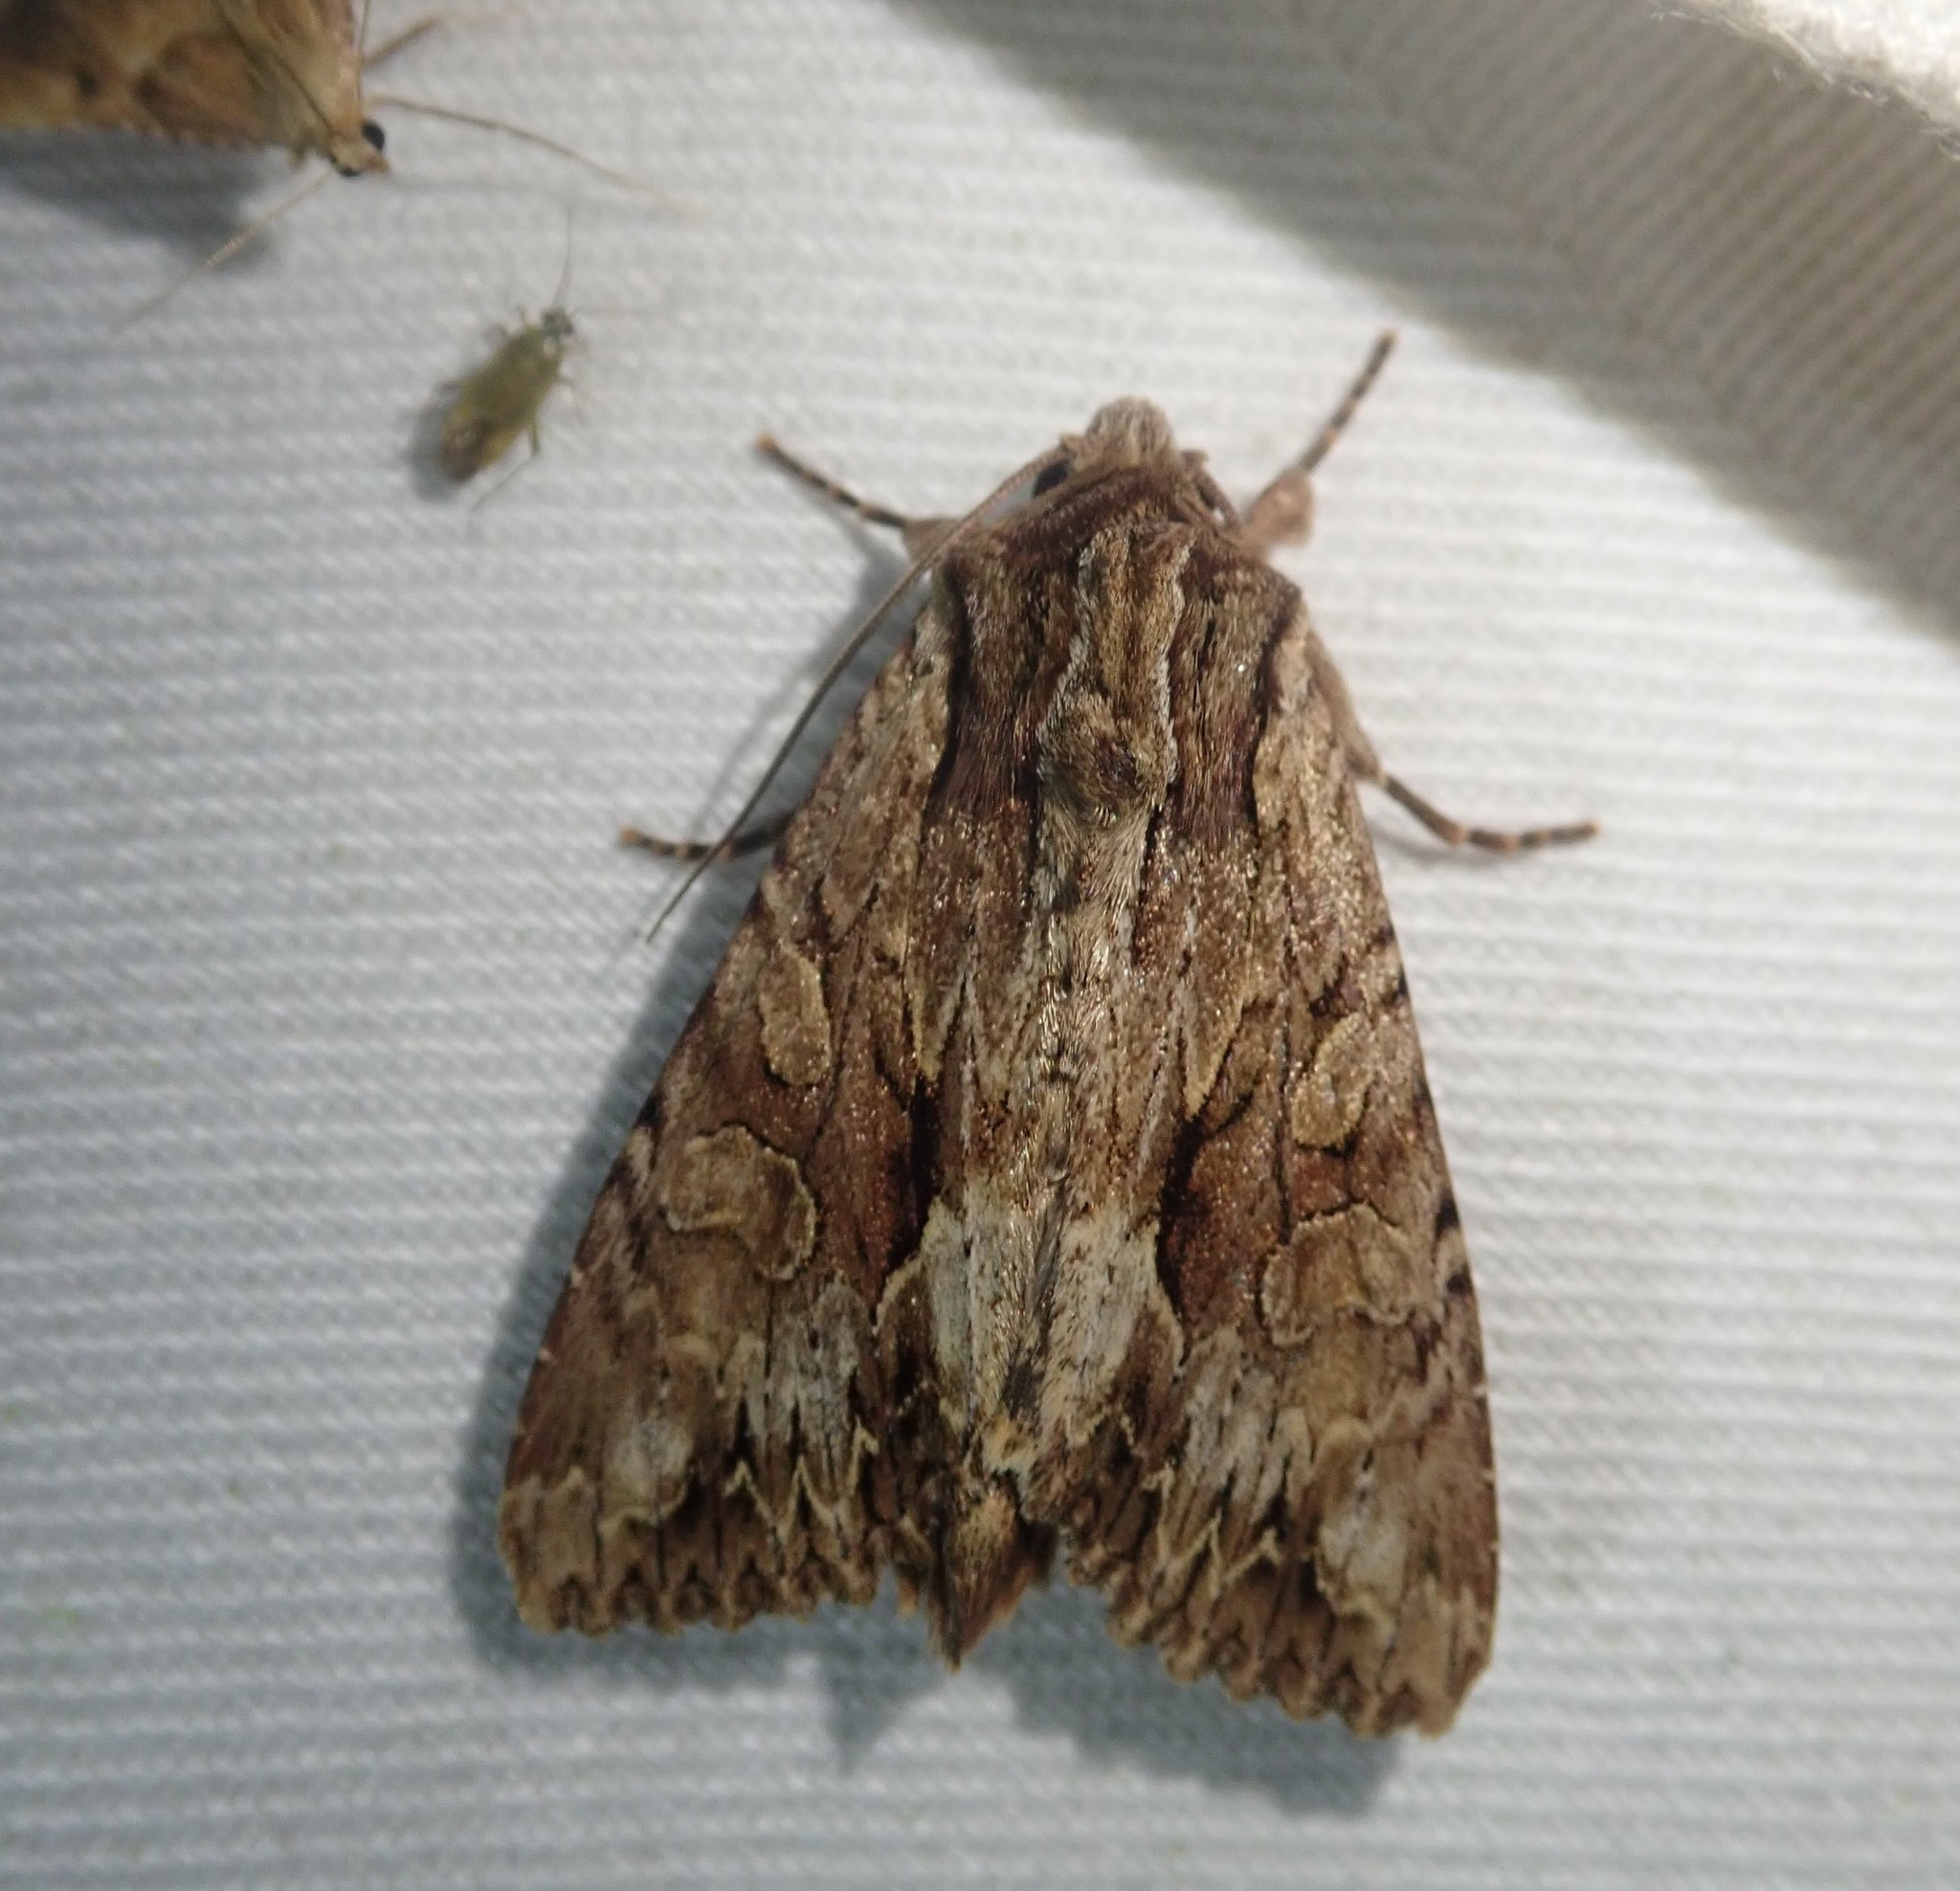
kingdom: Animalia
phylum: Arthropoda
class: Insecta
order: Lepidoptera
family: Noctuidae
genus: Apamea
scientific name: Apamea monoglypha
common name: Dark arches
